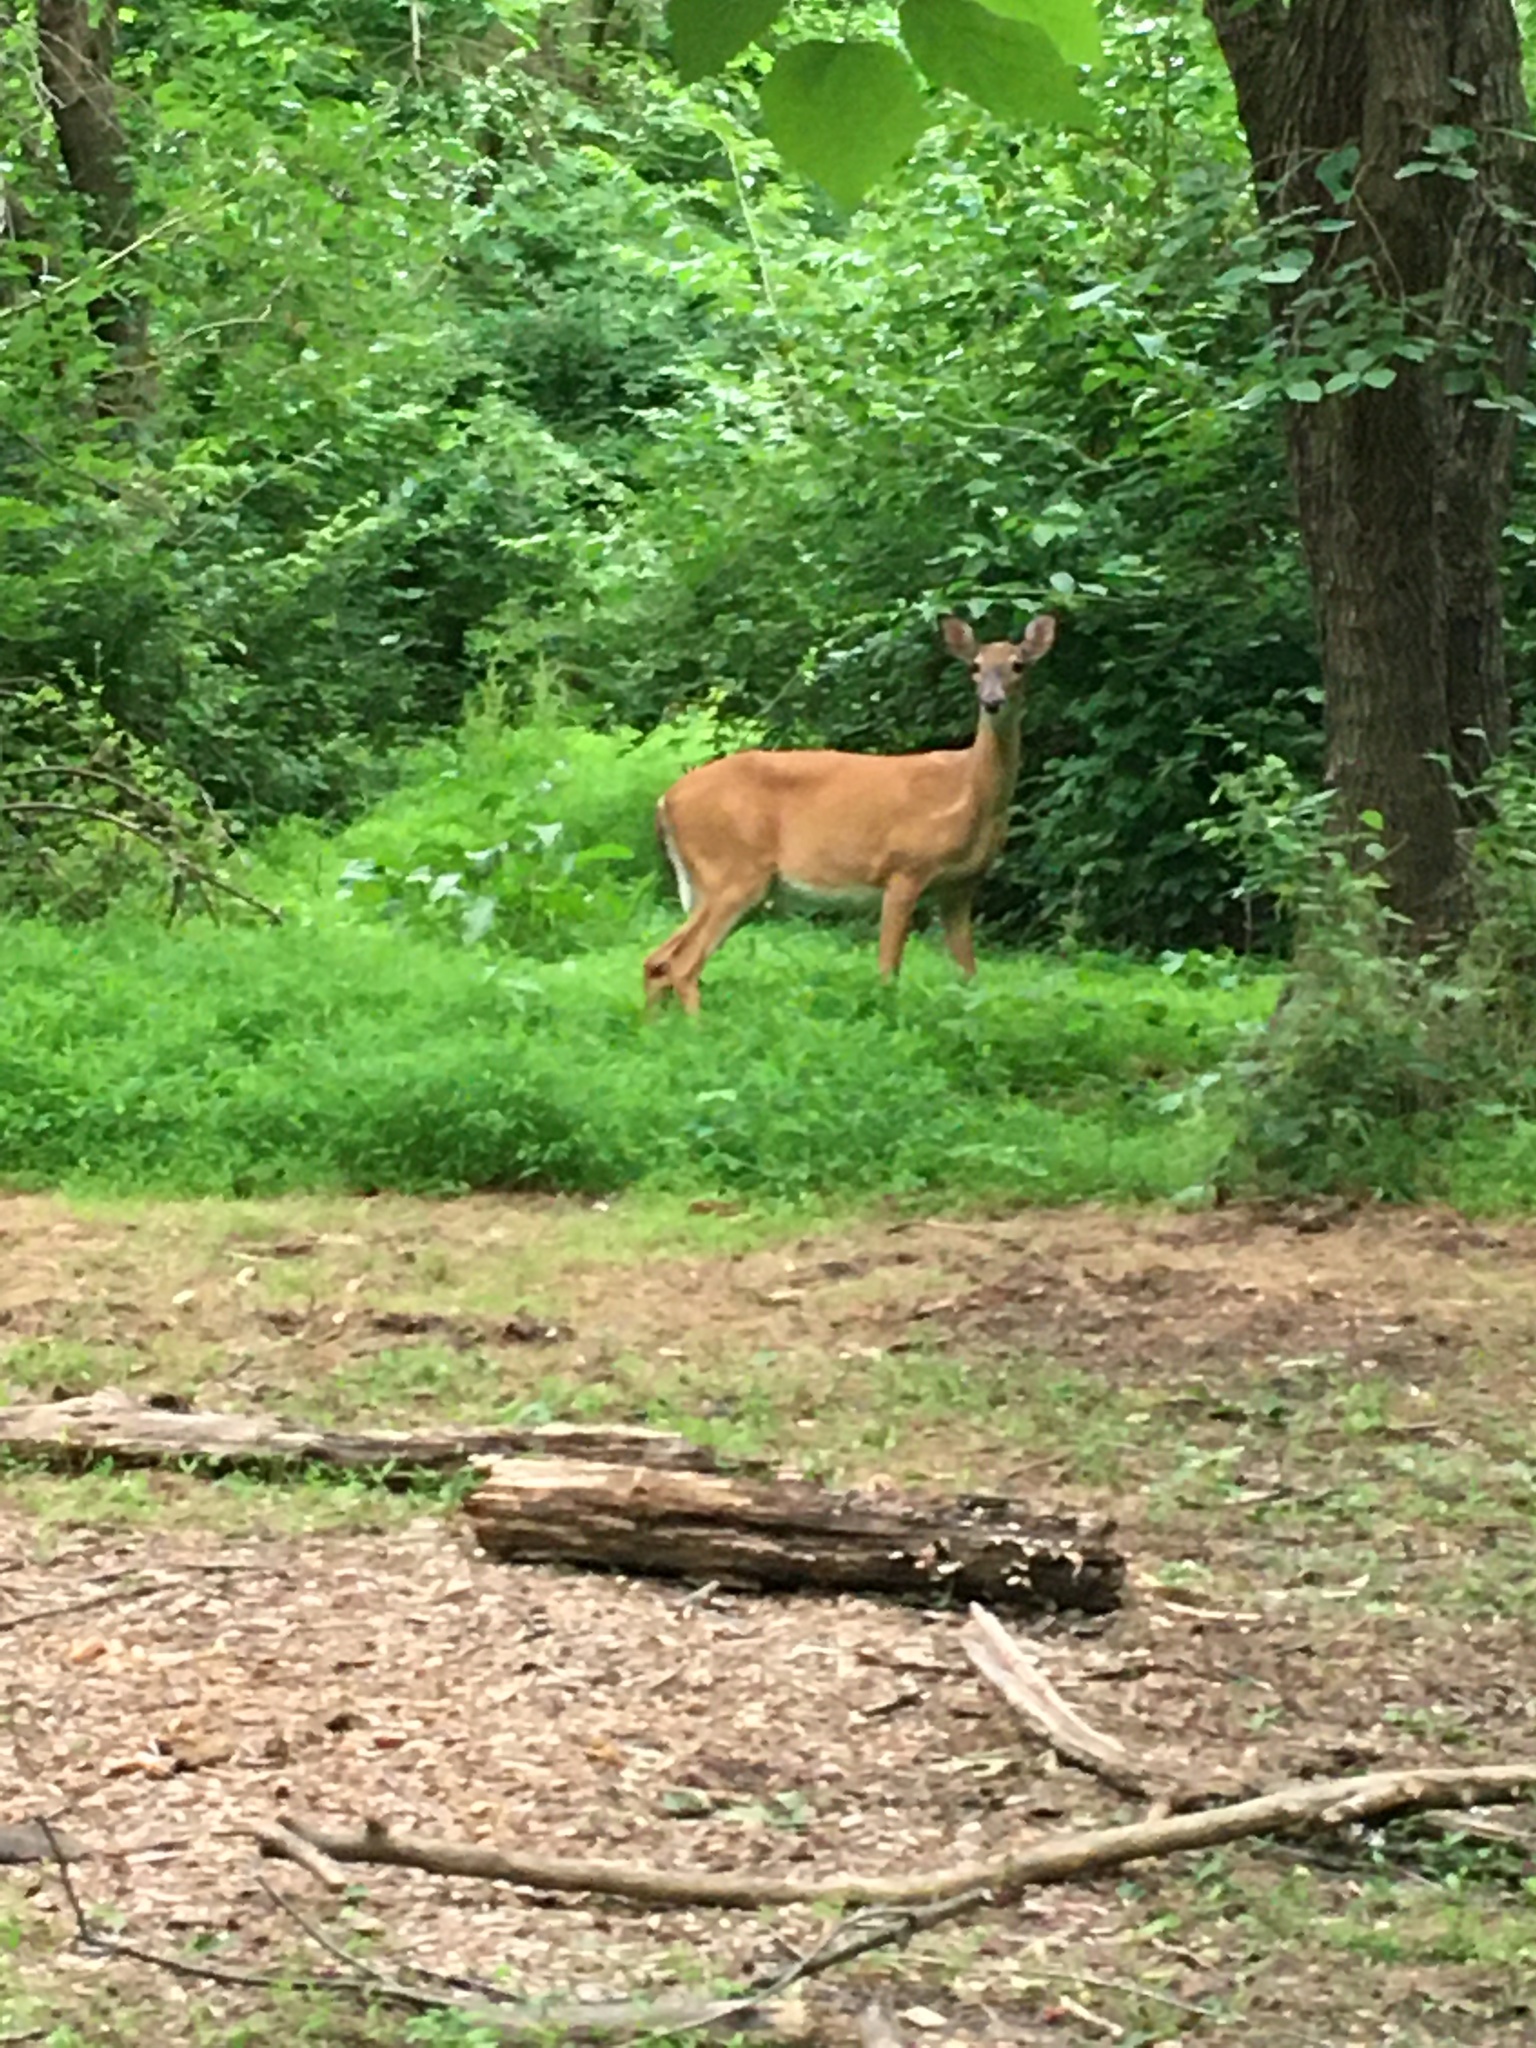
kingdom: Animalia
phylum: Chordata
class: Mammalia
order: Artiodactyla
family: Cervidae
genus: Odocoileus
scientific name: Odocoileus virginianus
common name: White-tailed deer
